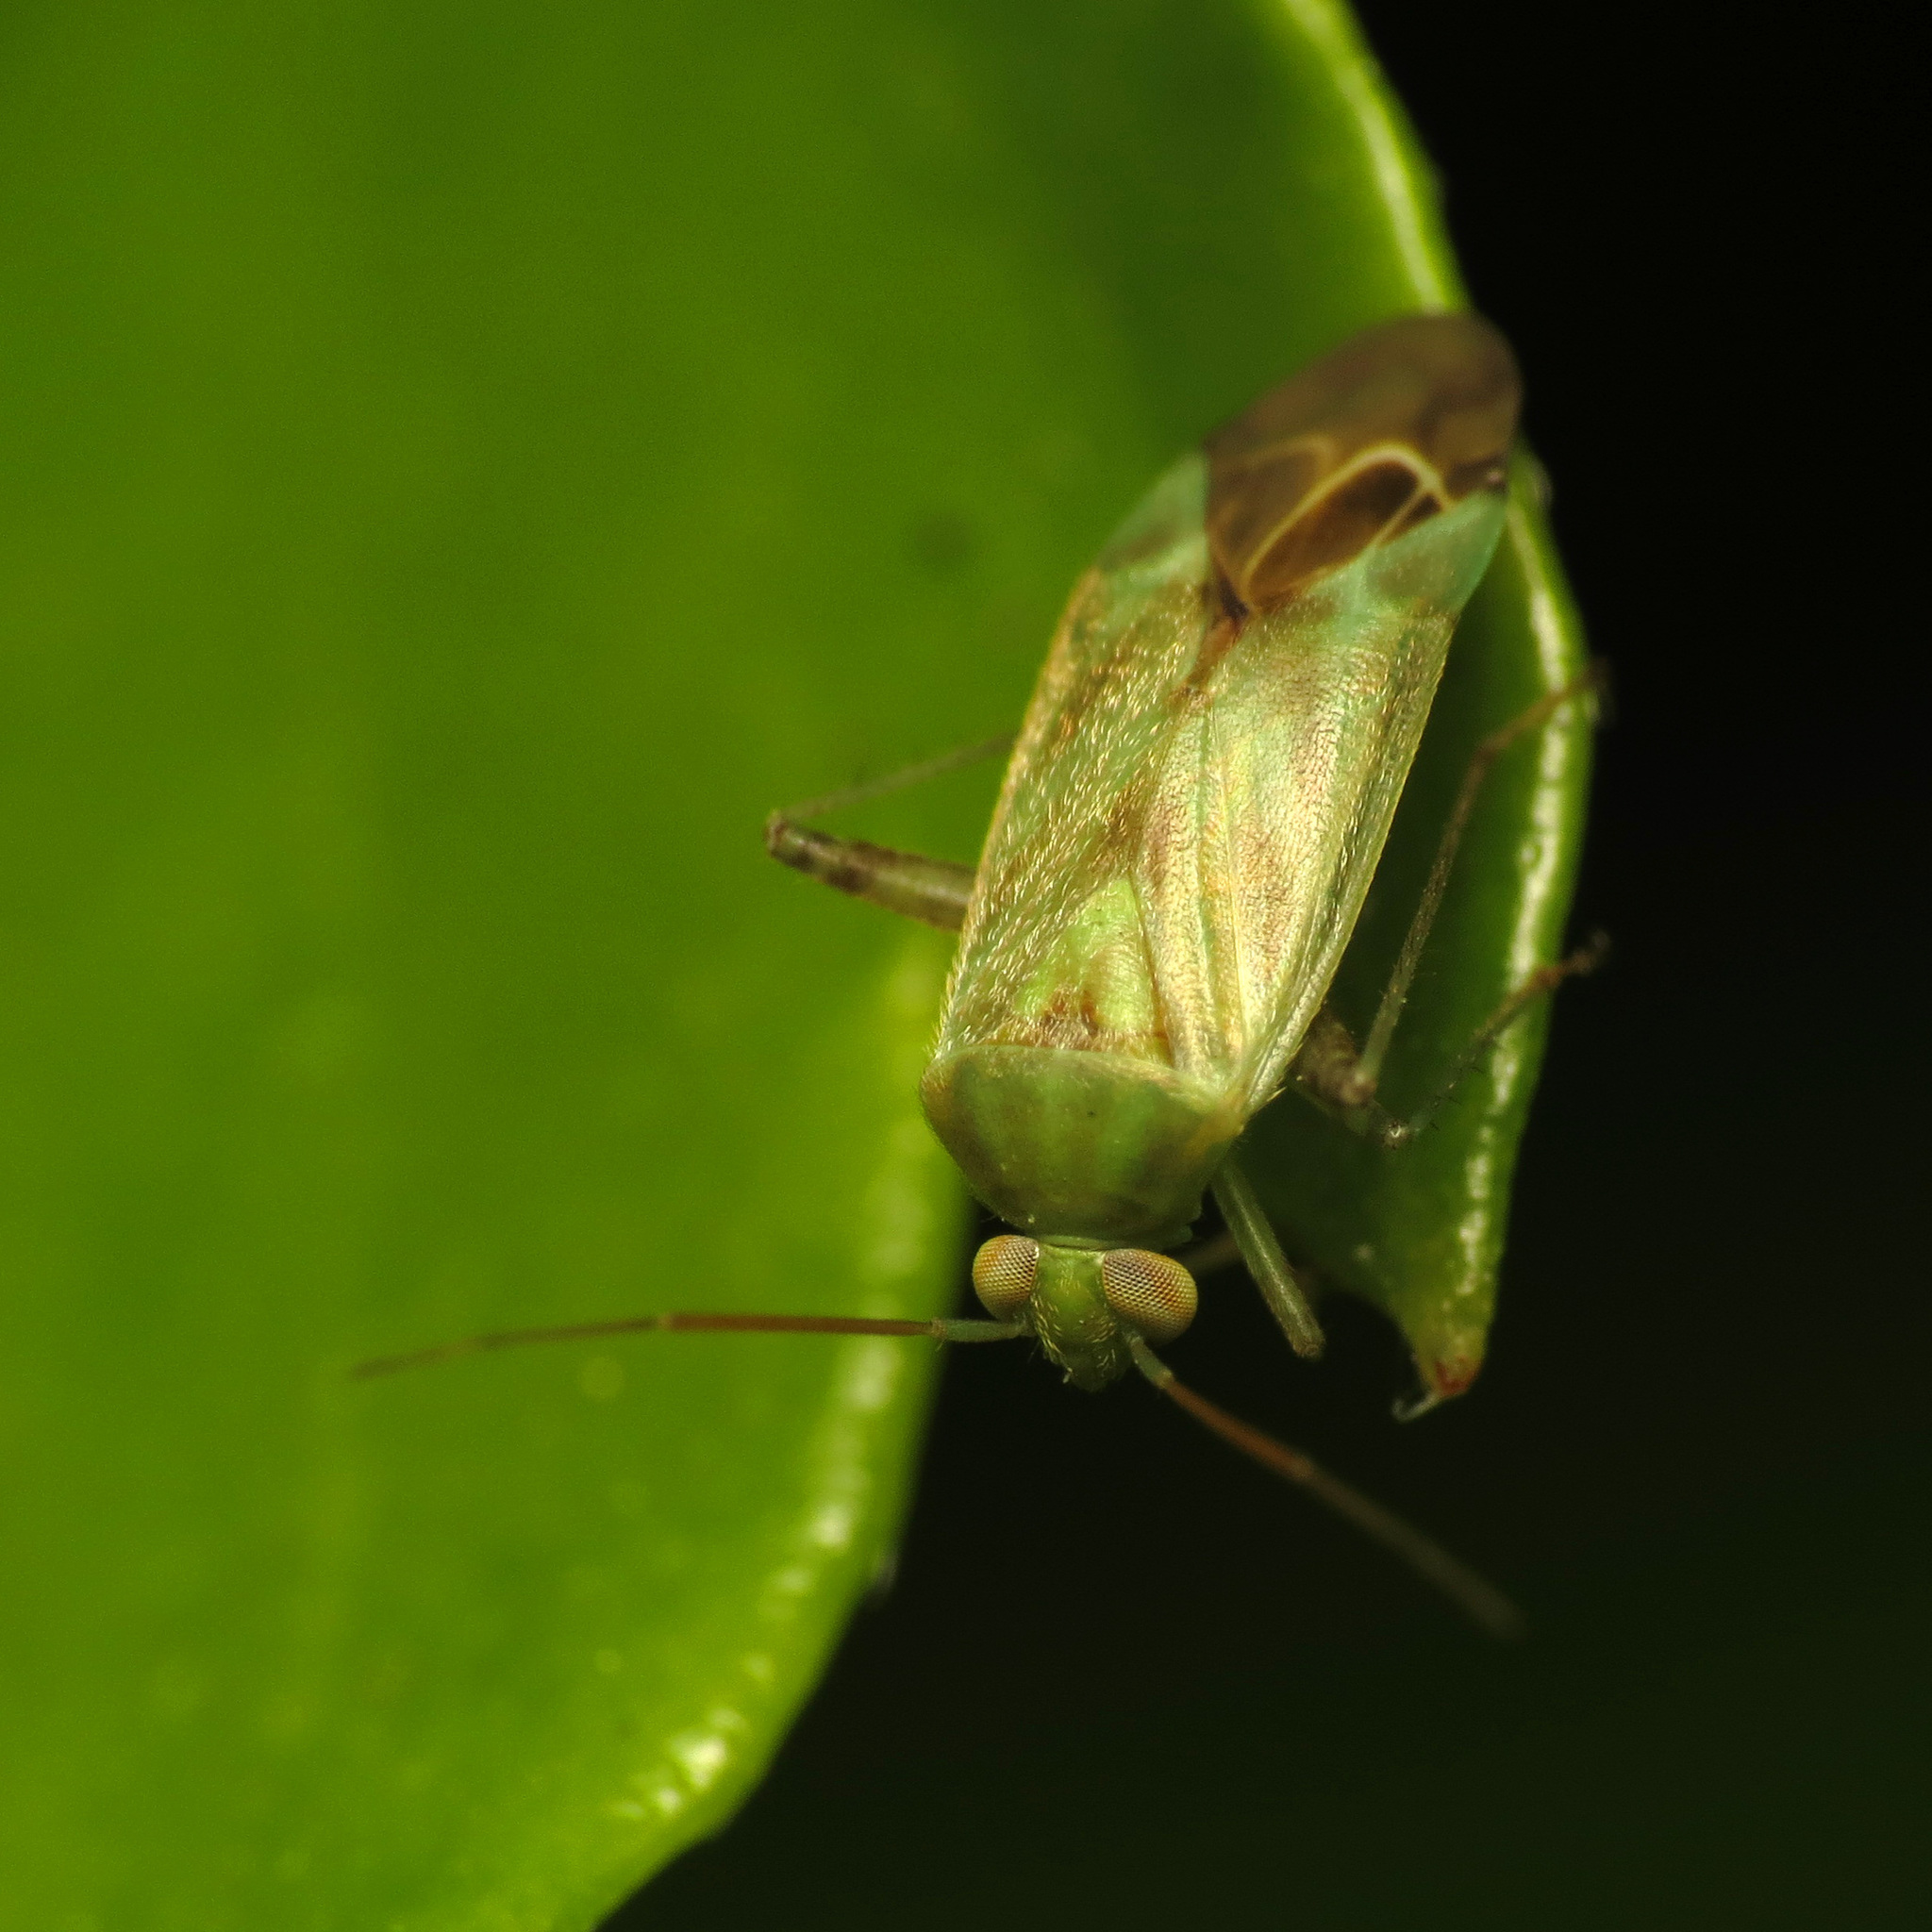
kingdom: Animalia
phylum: Arthropoda
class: Insecta
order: Hemiptera
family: Miridae
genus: Taylorilygus
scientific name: Taylorilygus apicalis
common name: Plant bug
